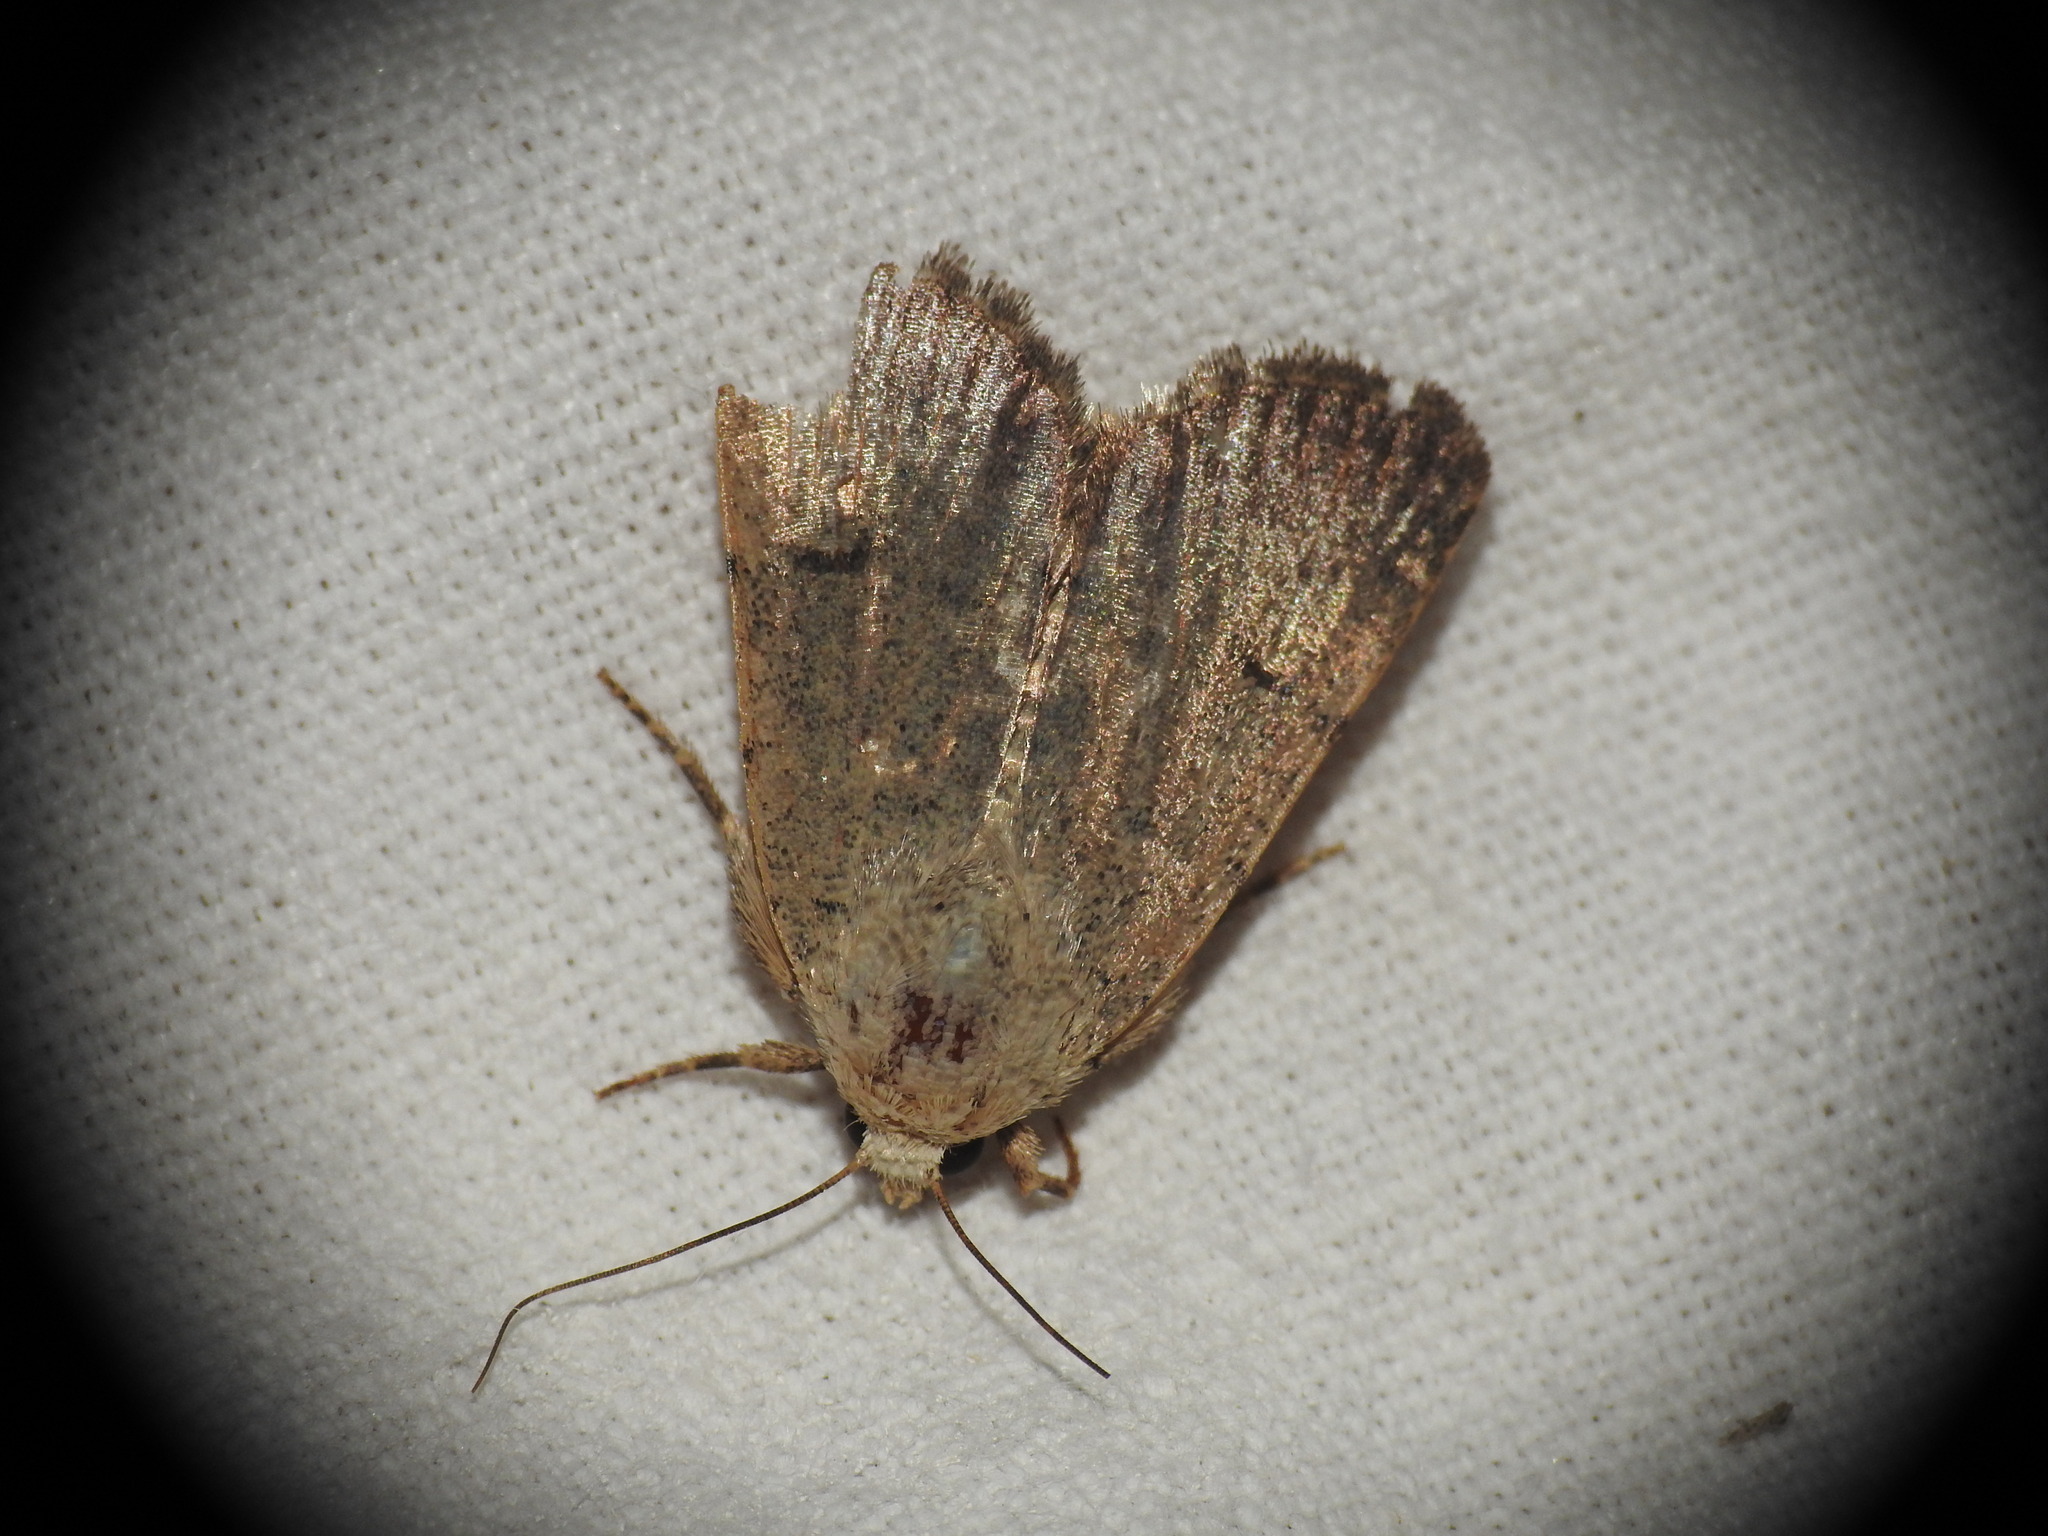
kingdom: Animalia
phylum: Arthropoda
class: Insecta
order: Lepidoptera
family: Noctuidae
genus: Caradrina
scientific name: Caradrina aspersa
